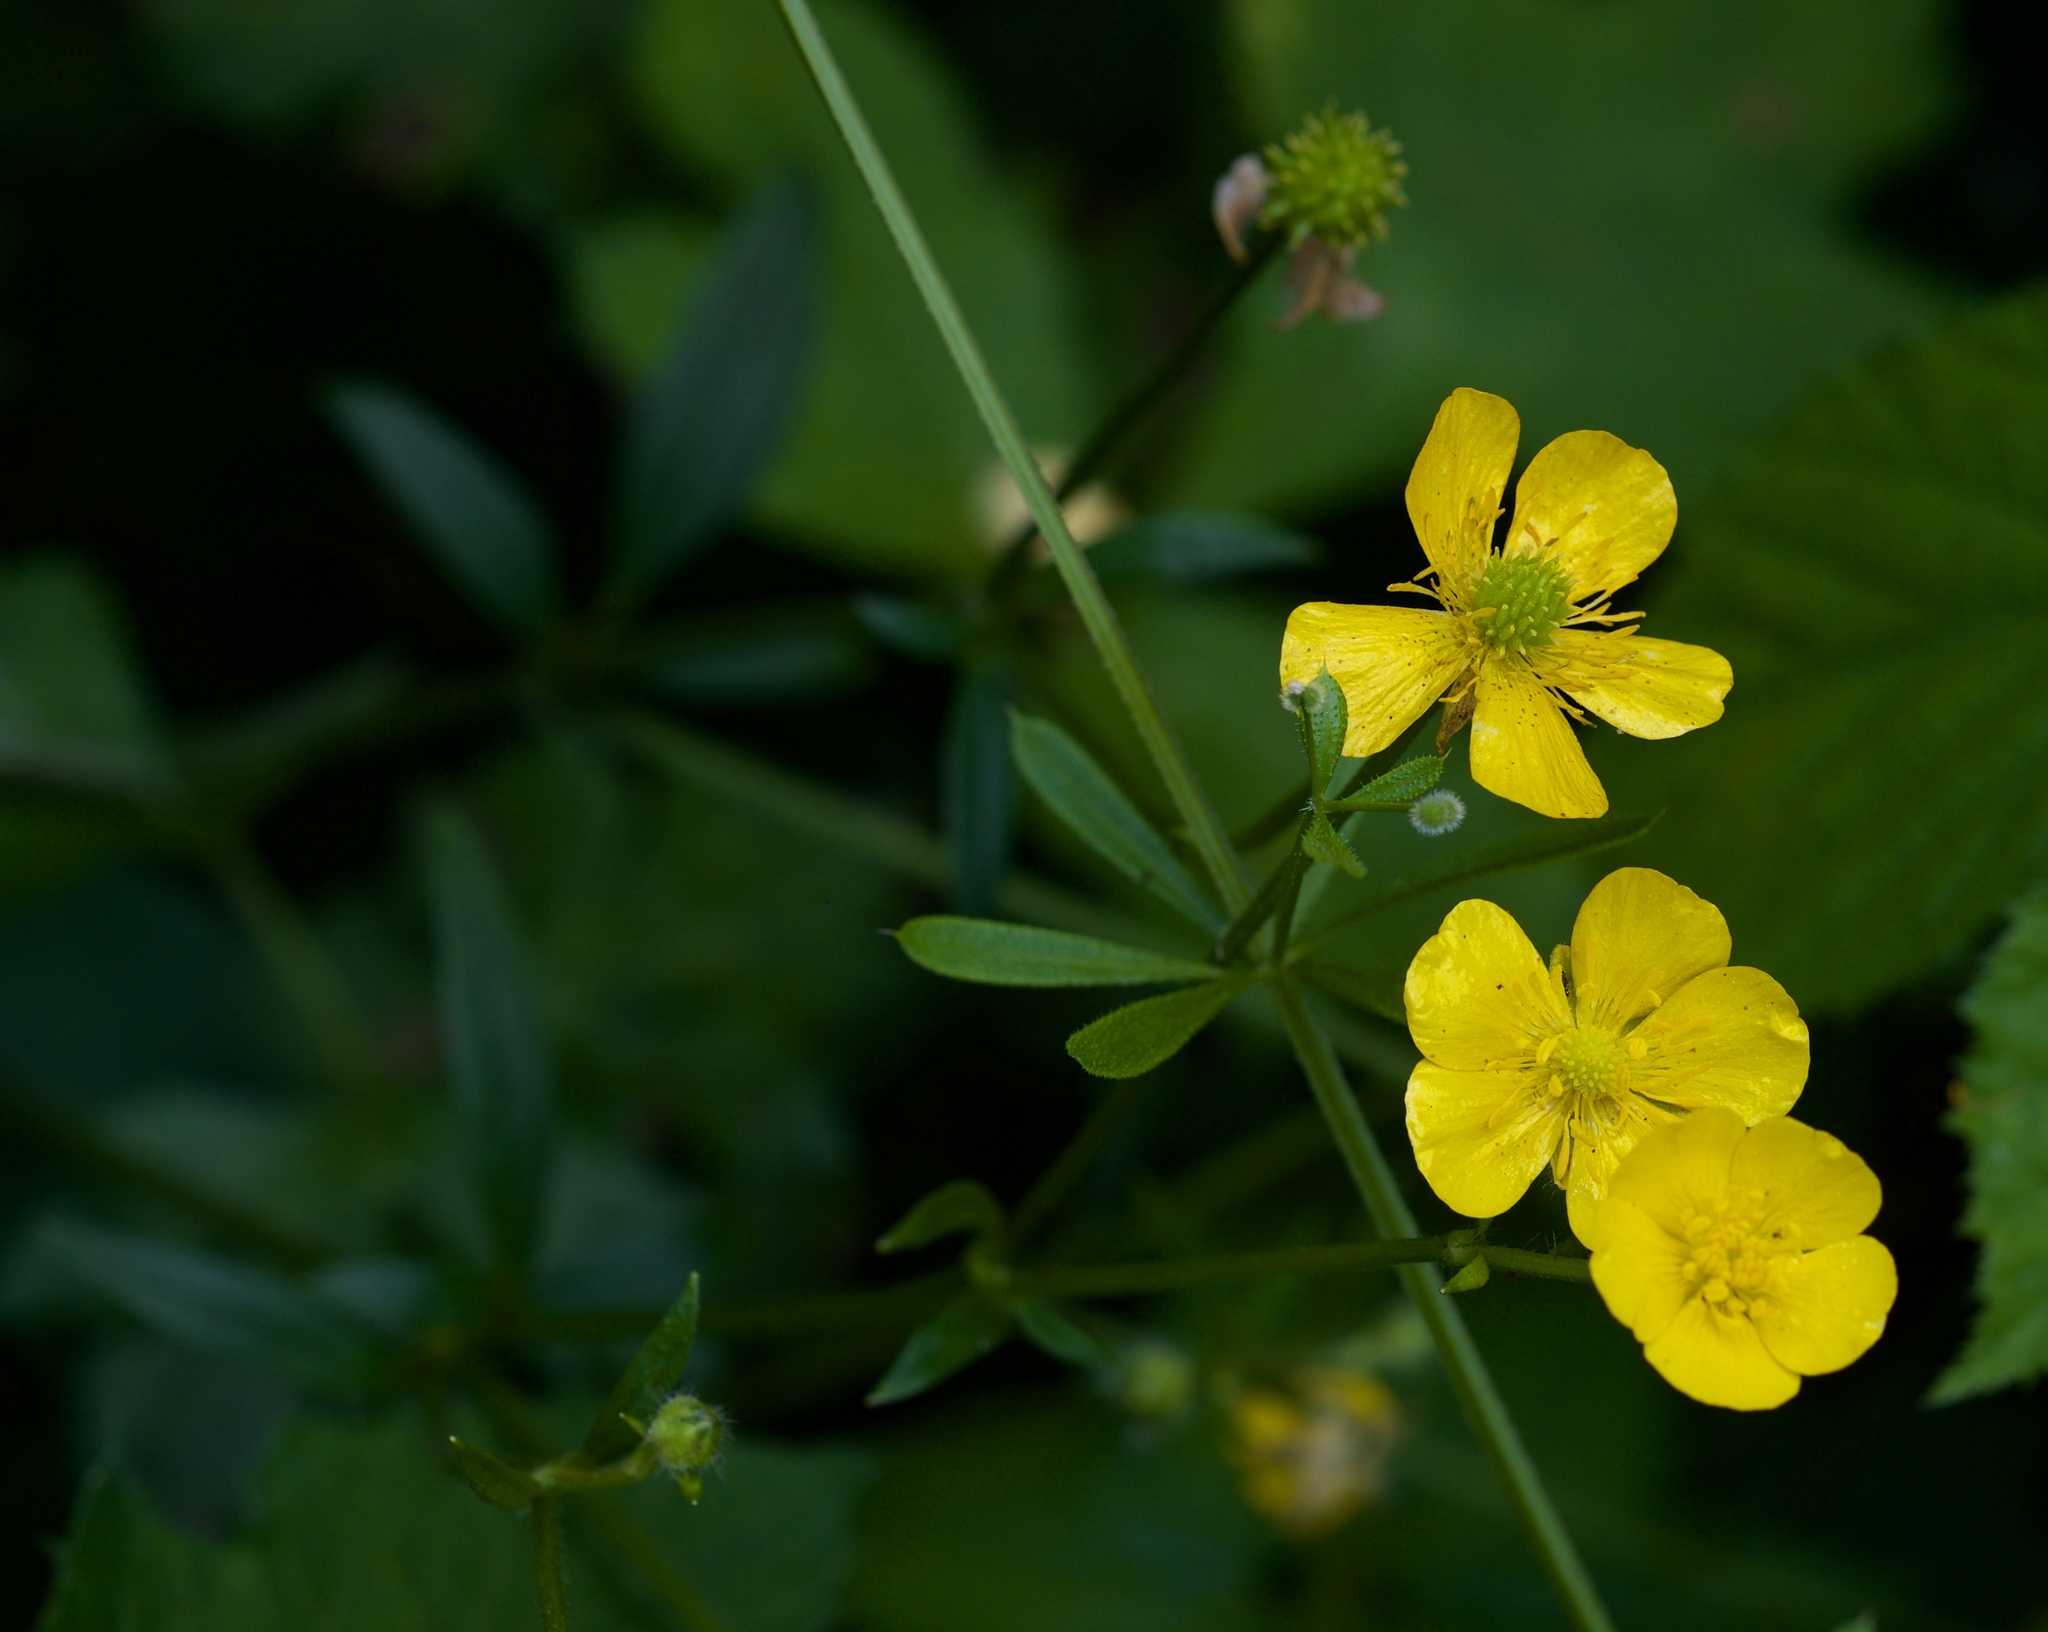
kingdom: Plantae
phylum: Tracheophyta
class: Magnoliopsida
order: Ranunculales
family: Ranunculaceae
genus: Ranunculus
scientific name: Ranunculus repens
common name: Creeping buttercup
